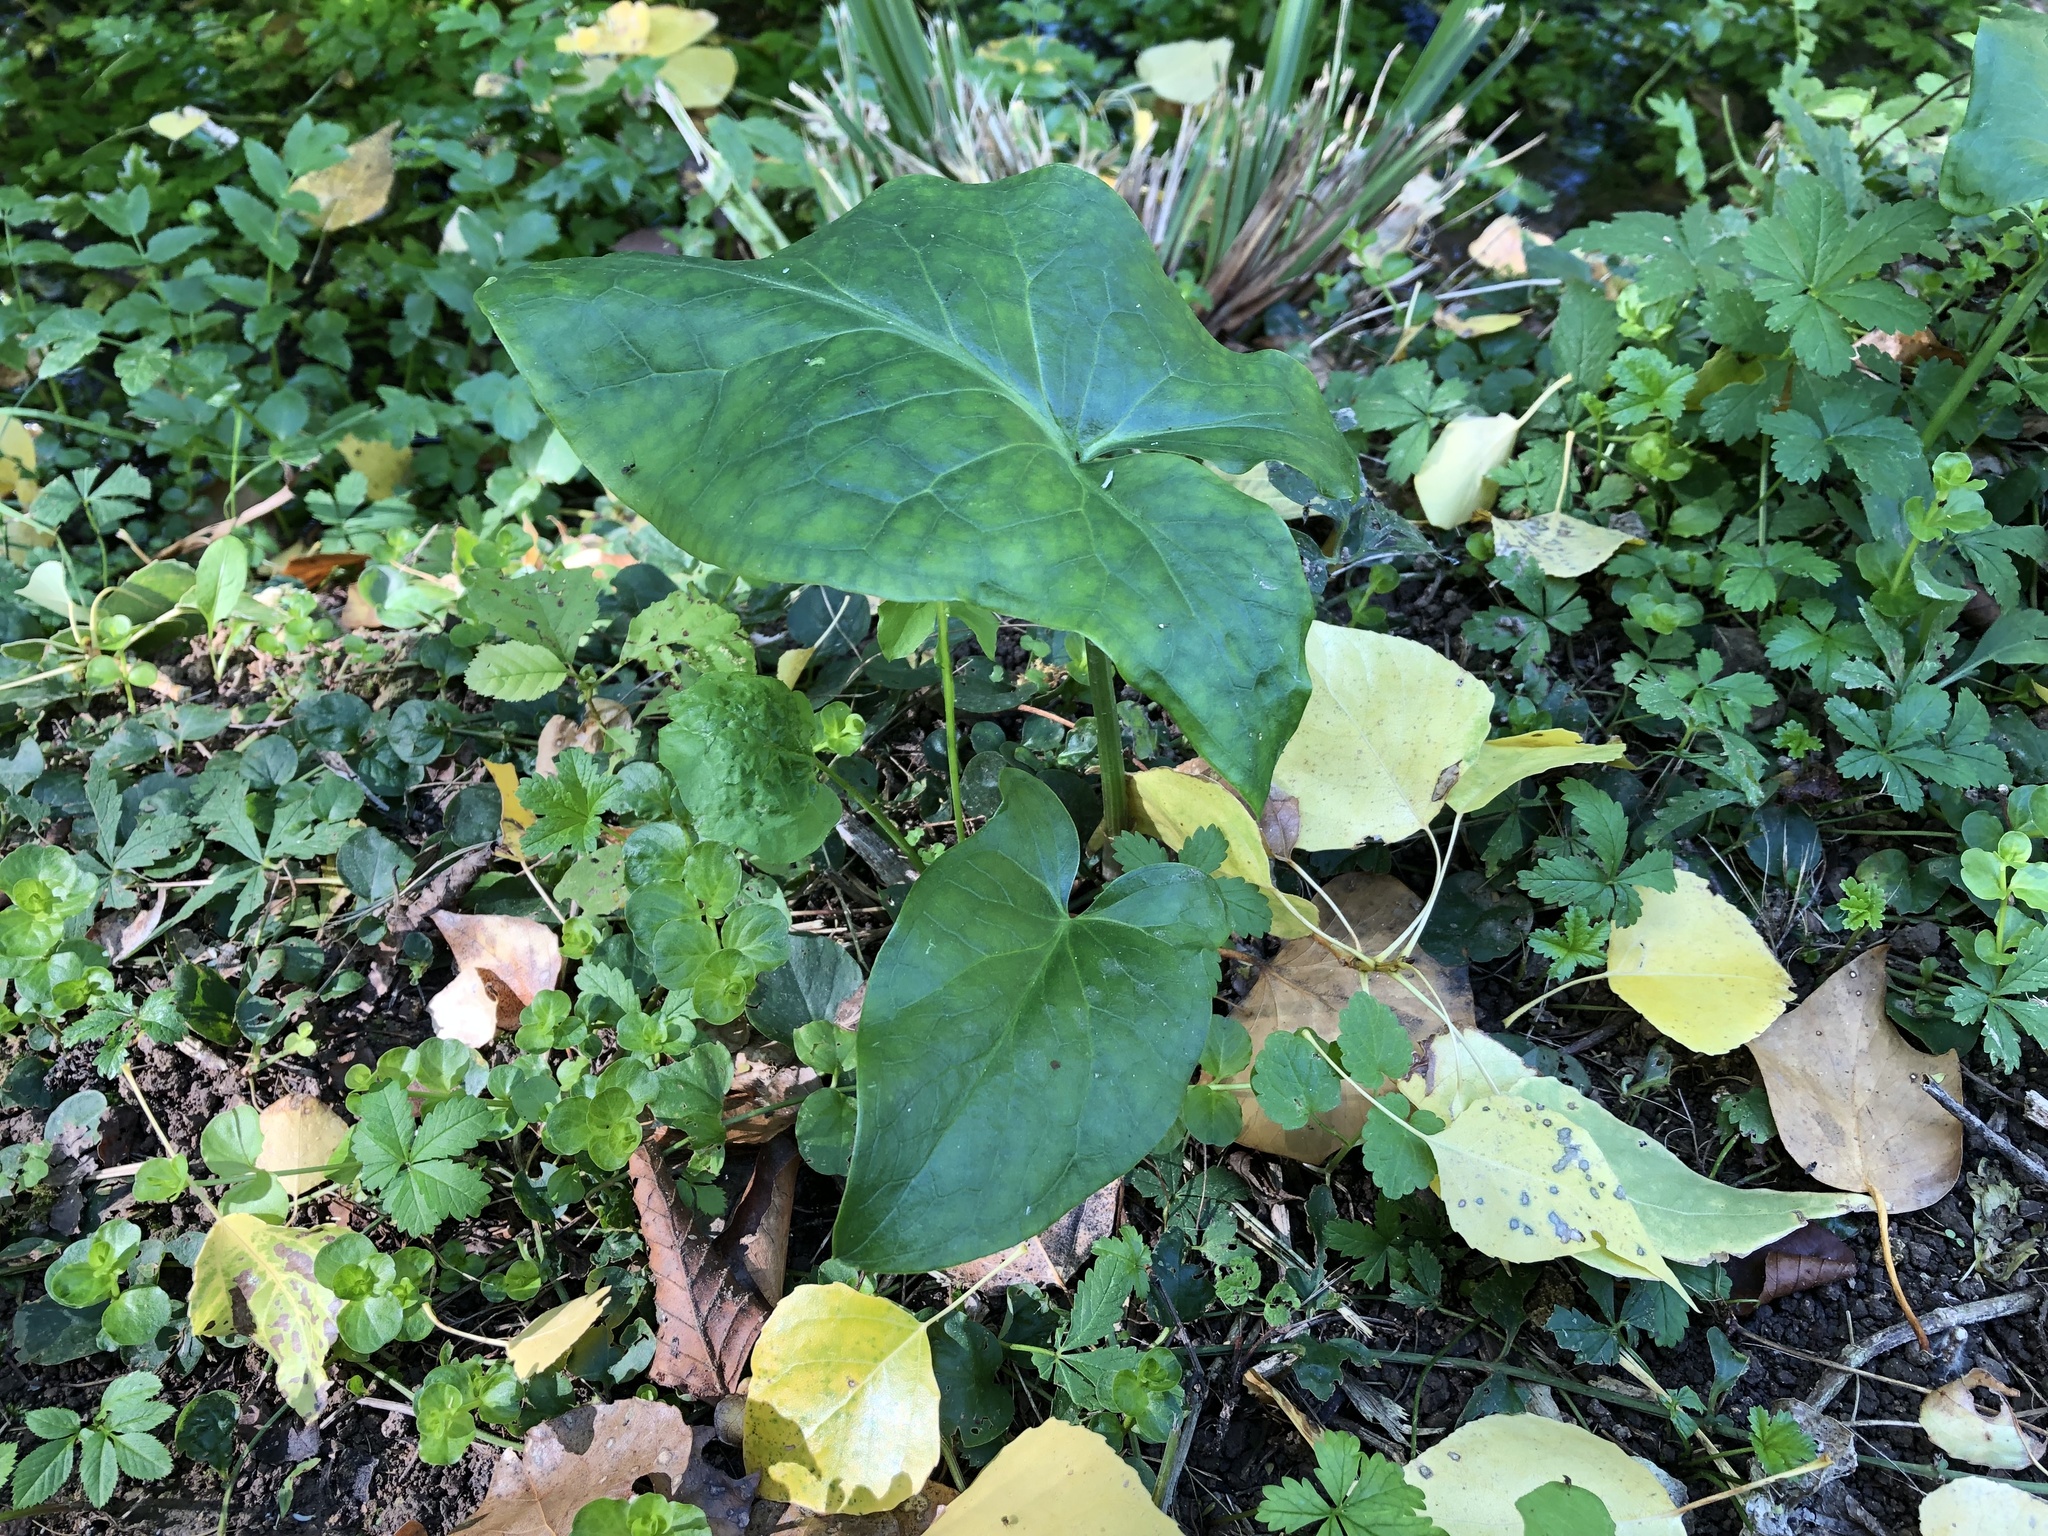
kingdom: Plantae
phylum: Tracheophyta
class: Liliopsida
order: Alismatales
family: Araceae
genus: Arum
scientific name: Arum
